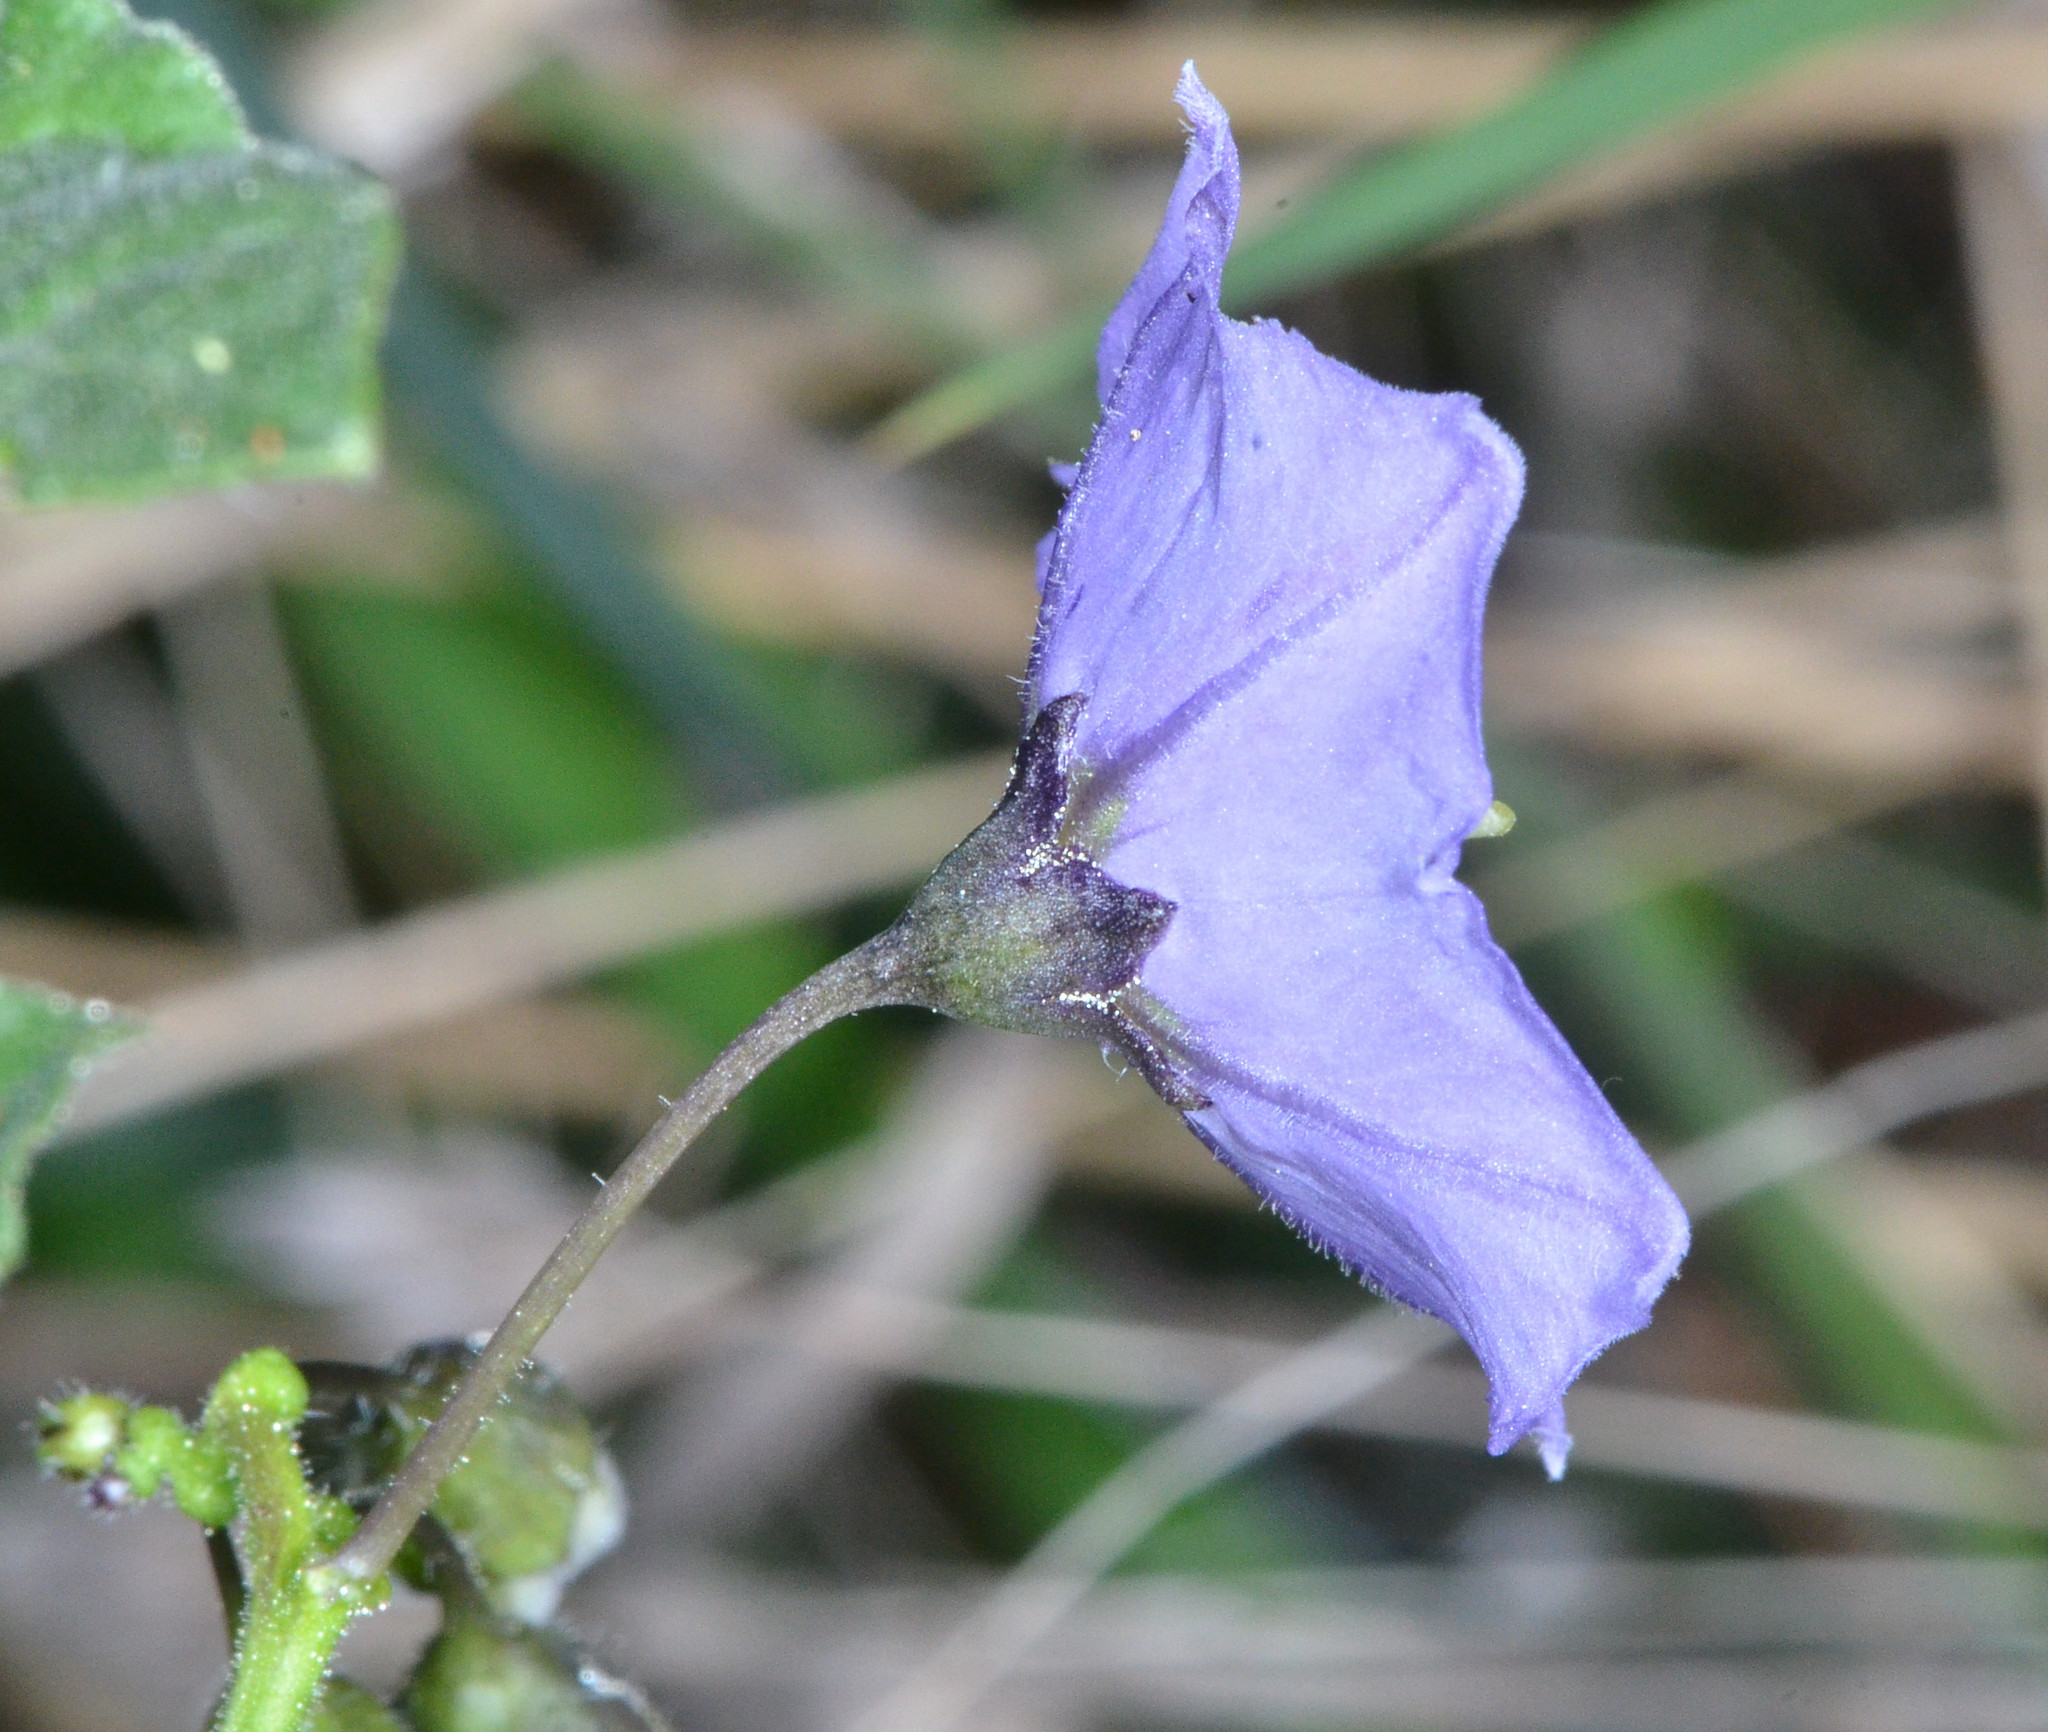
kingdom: Plantae
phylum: Tracheophyta
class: Magnoliopsida
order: Solanales
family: Solanaceae
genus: Solanum
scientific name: Solanum umbelliferum
